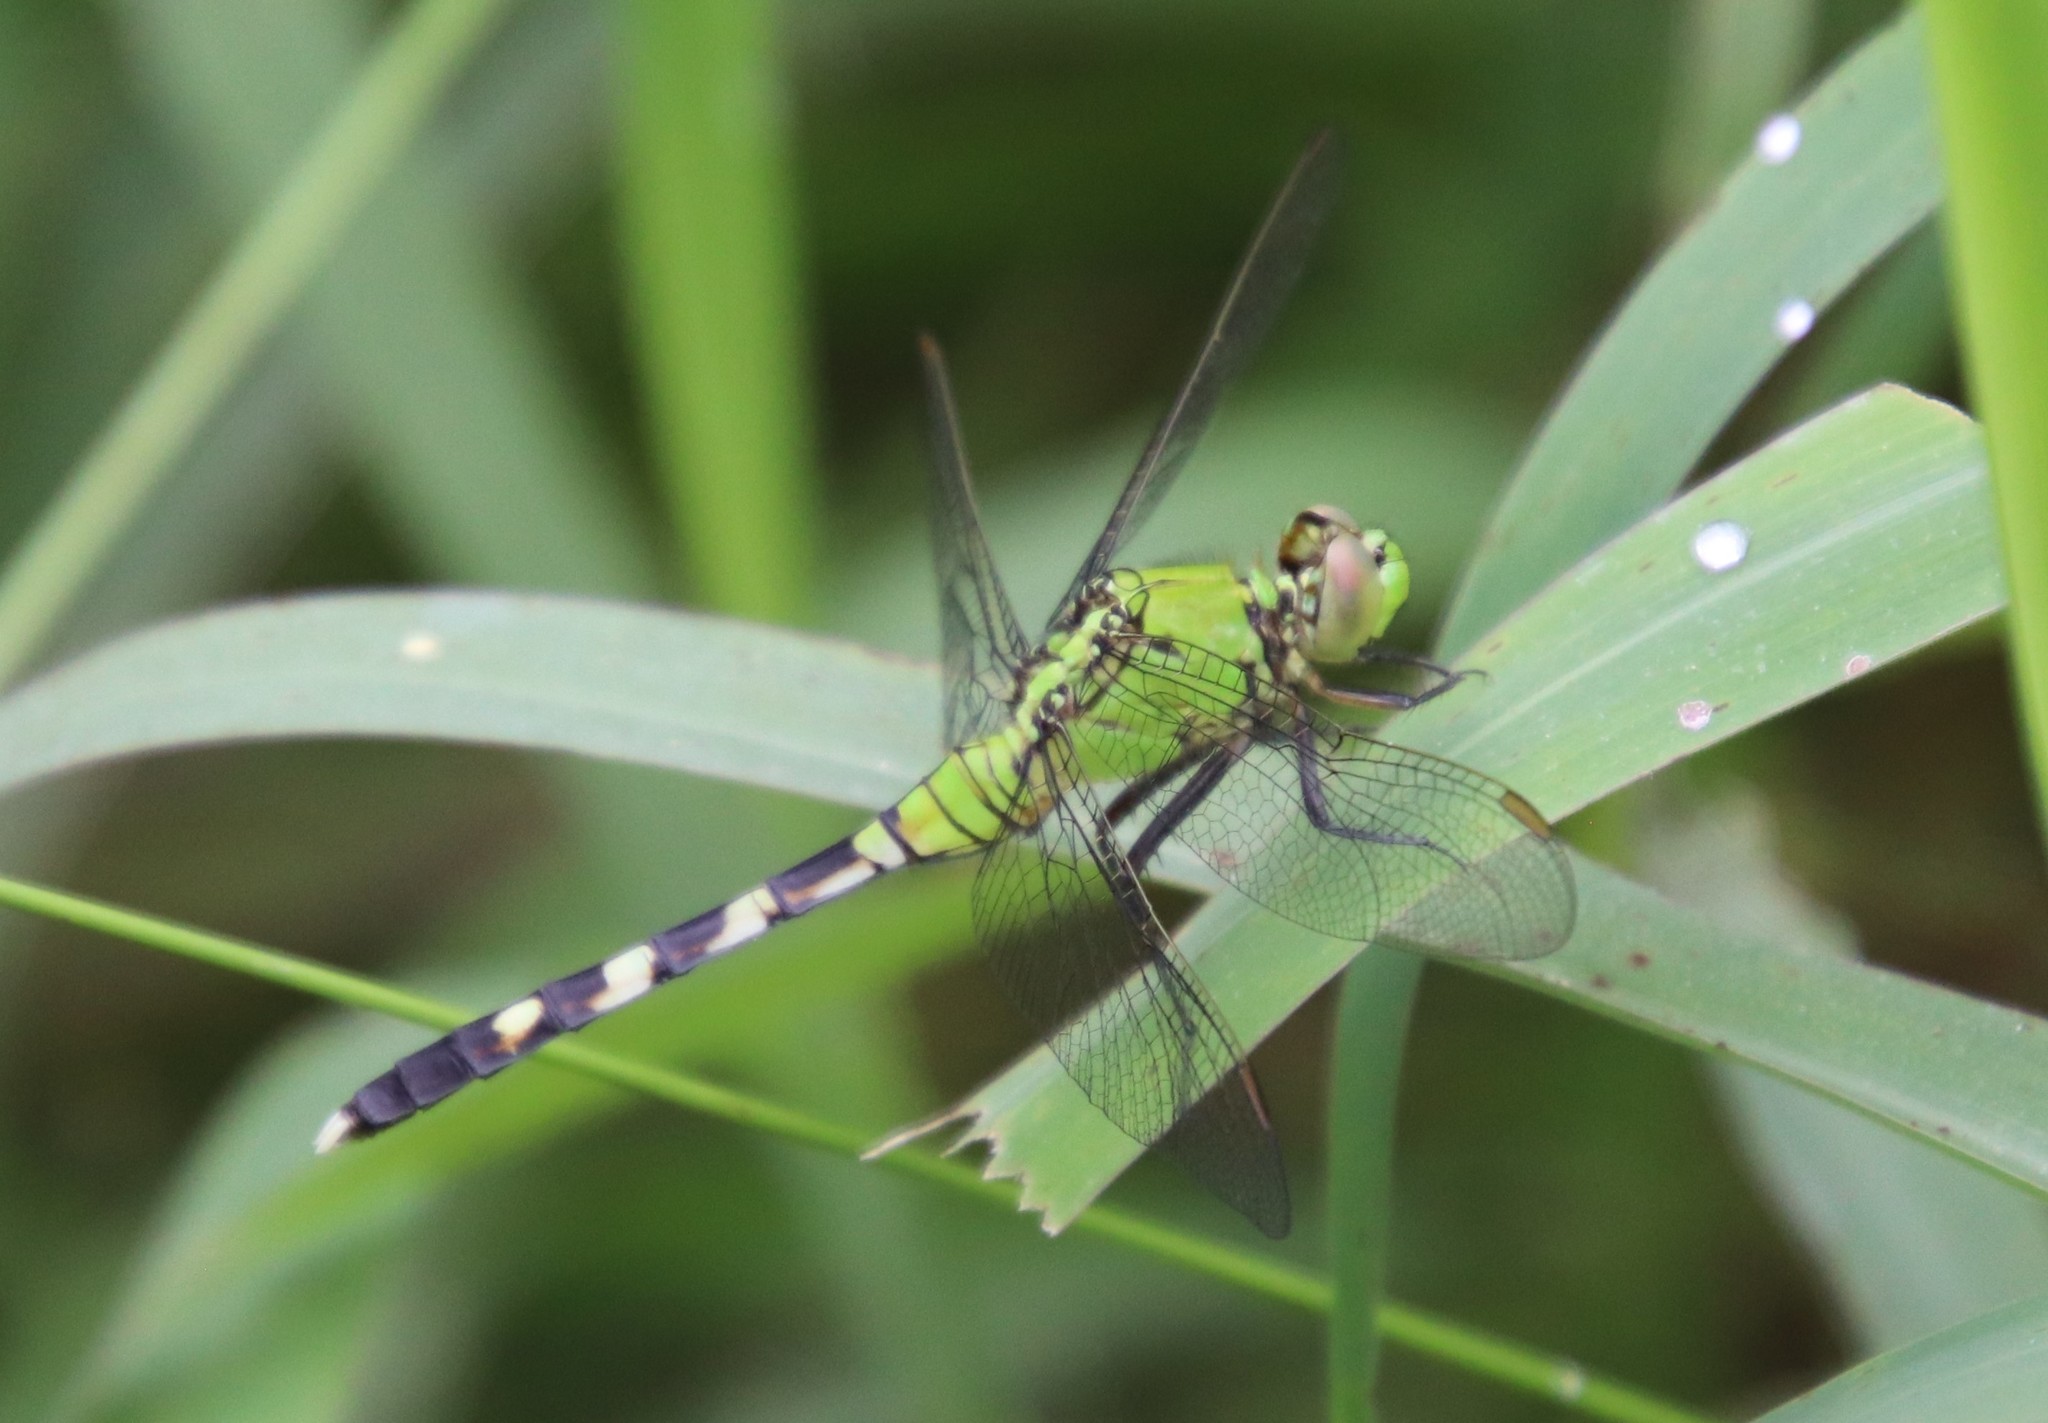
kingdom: Animalia
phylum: Arthropoda
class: Insecta
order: Odonata
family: Libellulidae
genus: Erythemis
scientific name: Erythemis simplicicollis
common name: Eastern pondhawk
